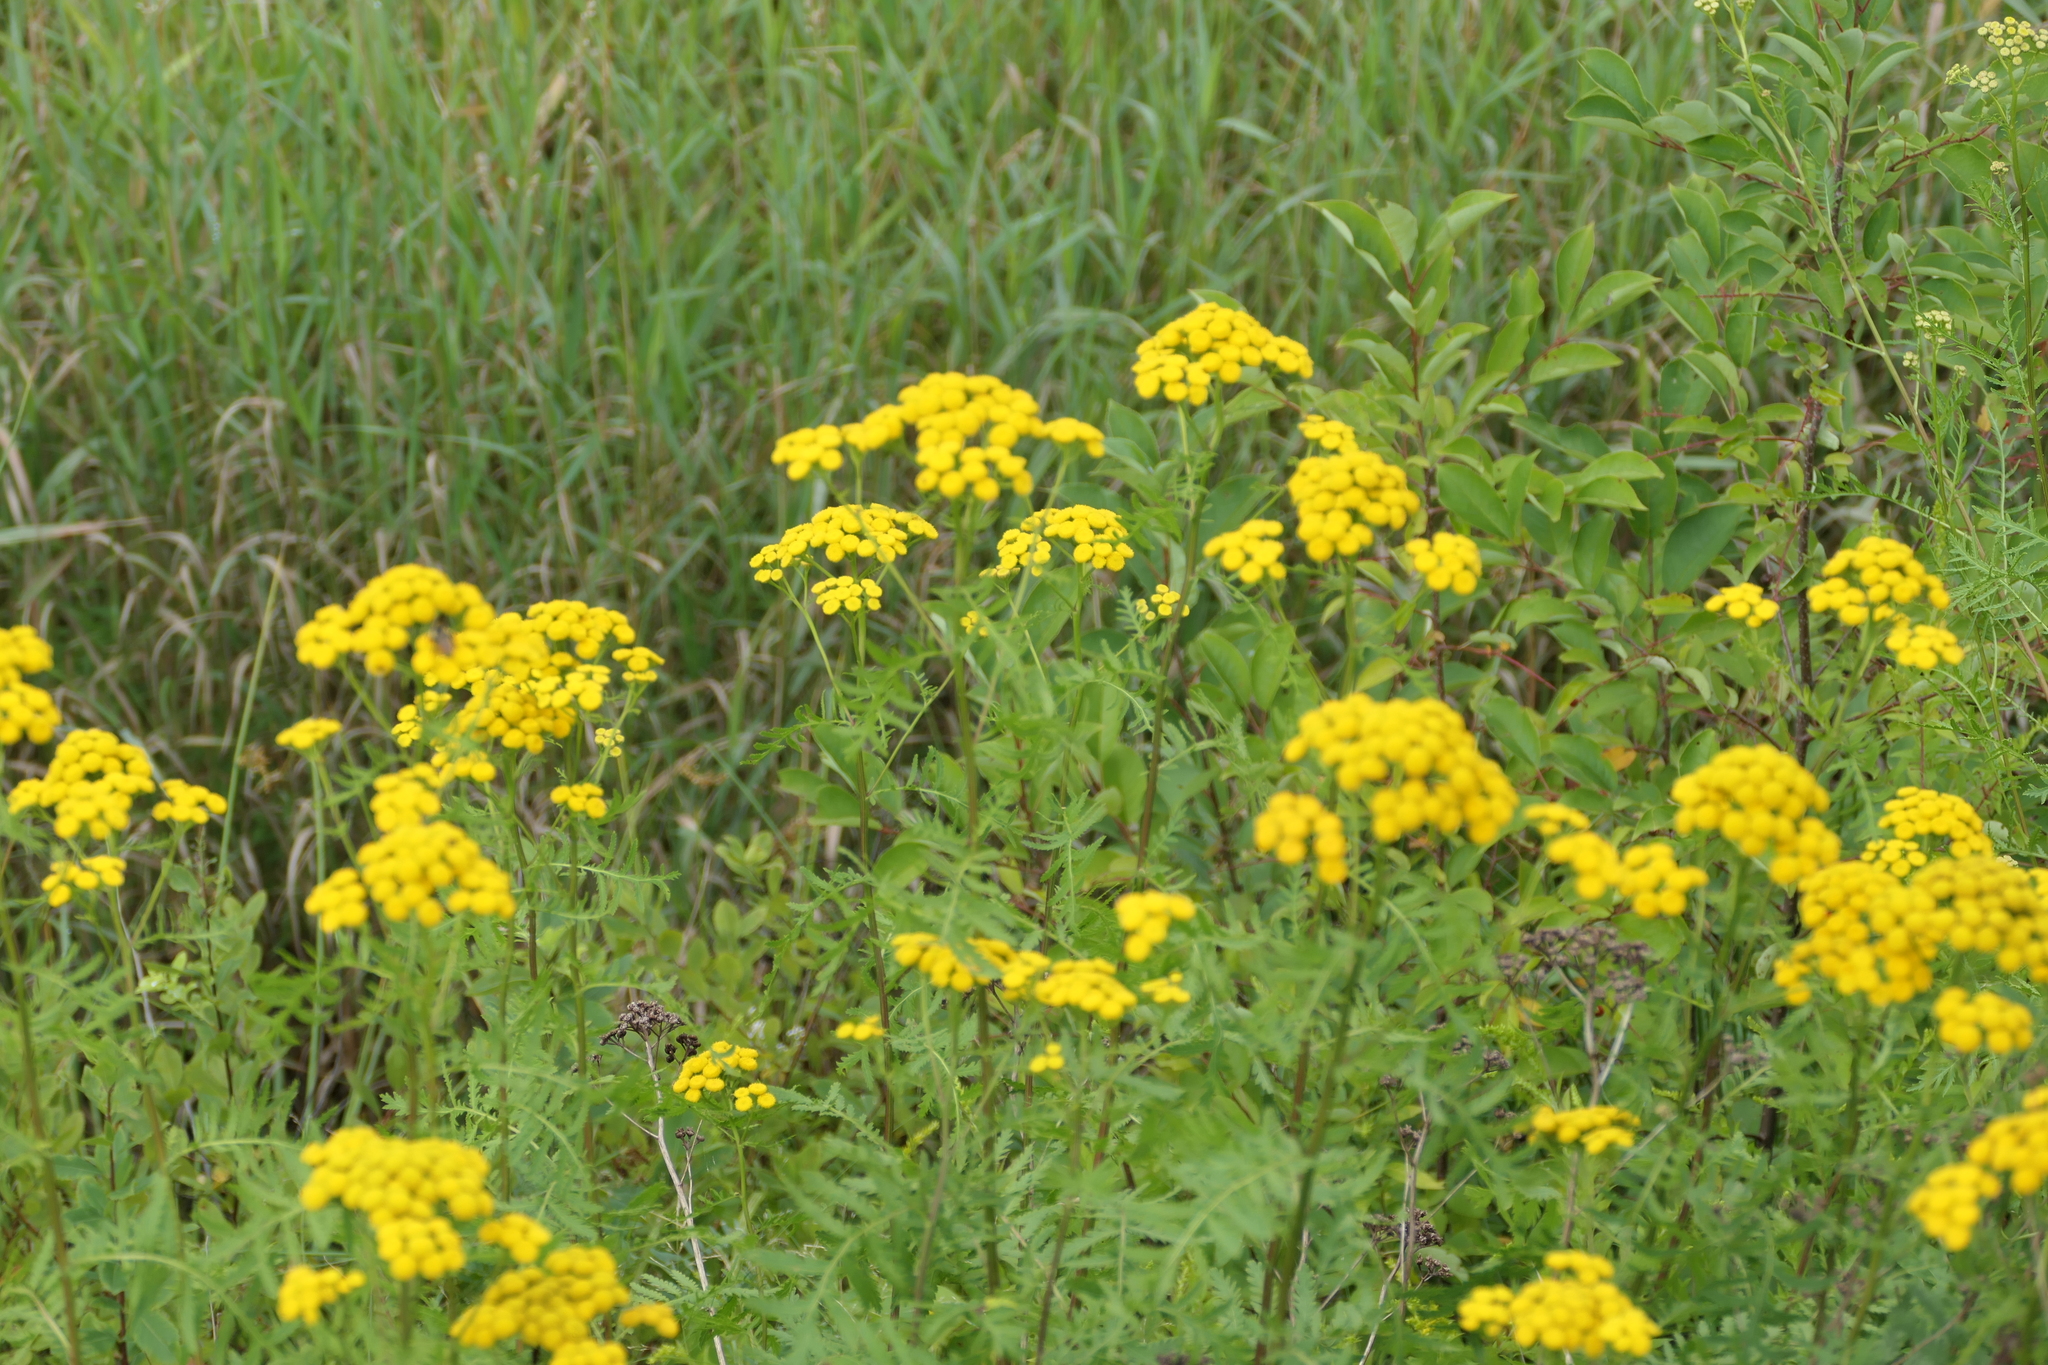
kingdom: Plantae
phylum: Tracheophyta
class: Magnoliopsida
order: Asterales
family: Asteraceae
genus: Tanacetum
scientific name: Tanacetum vulgare
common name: Common tansy
